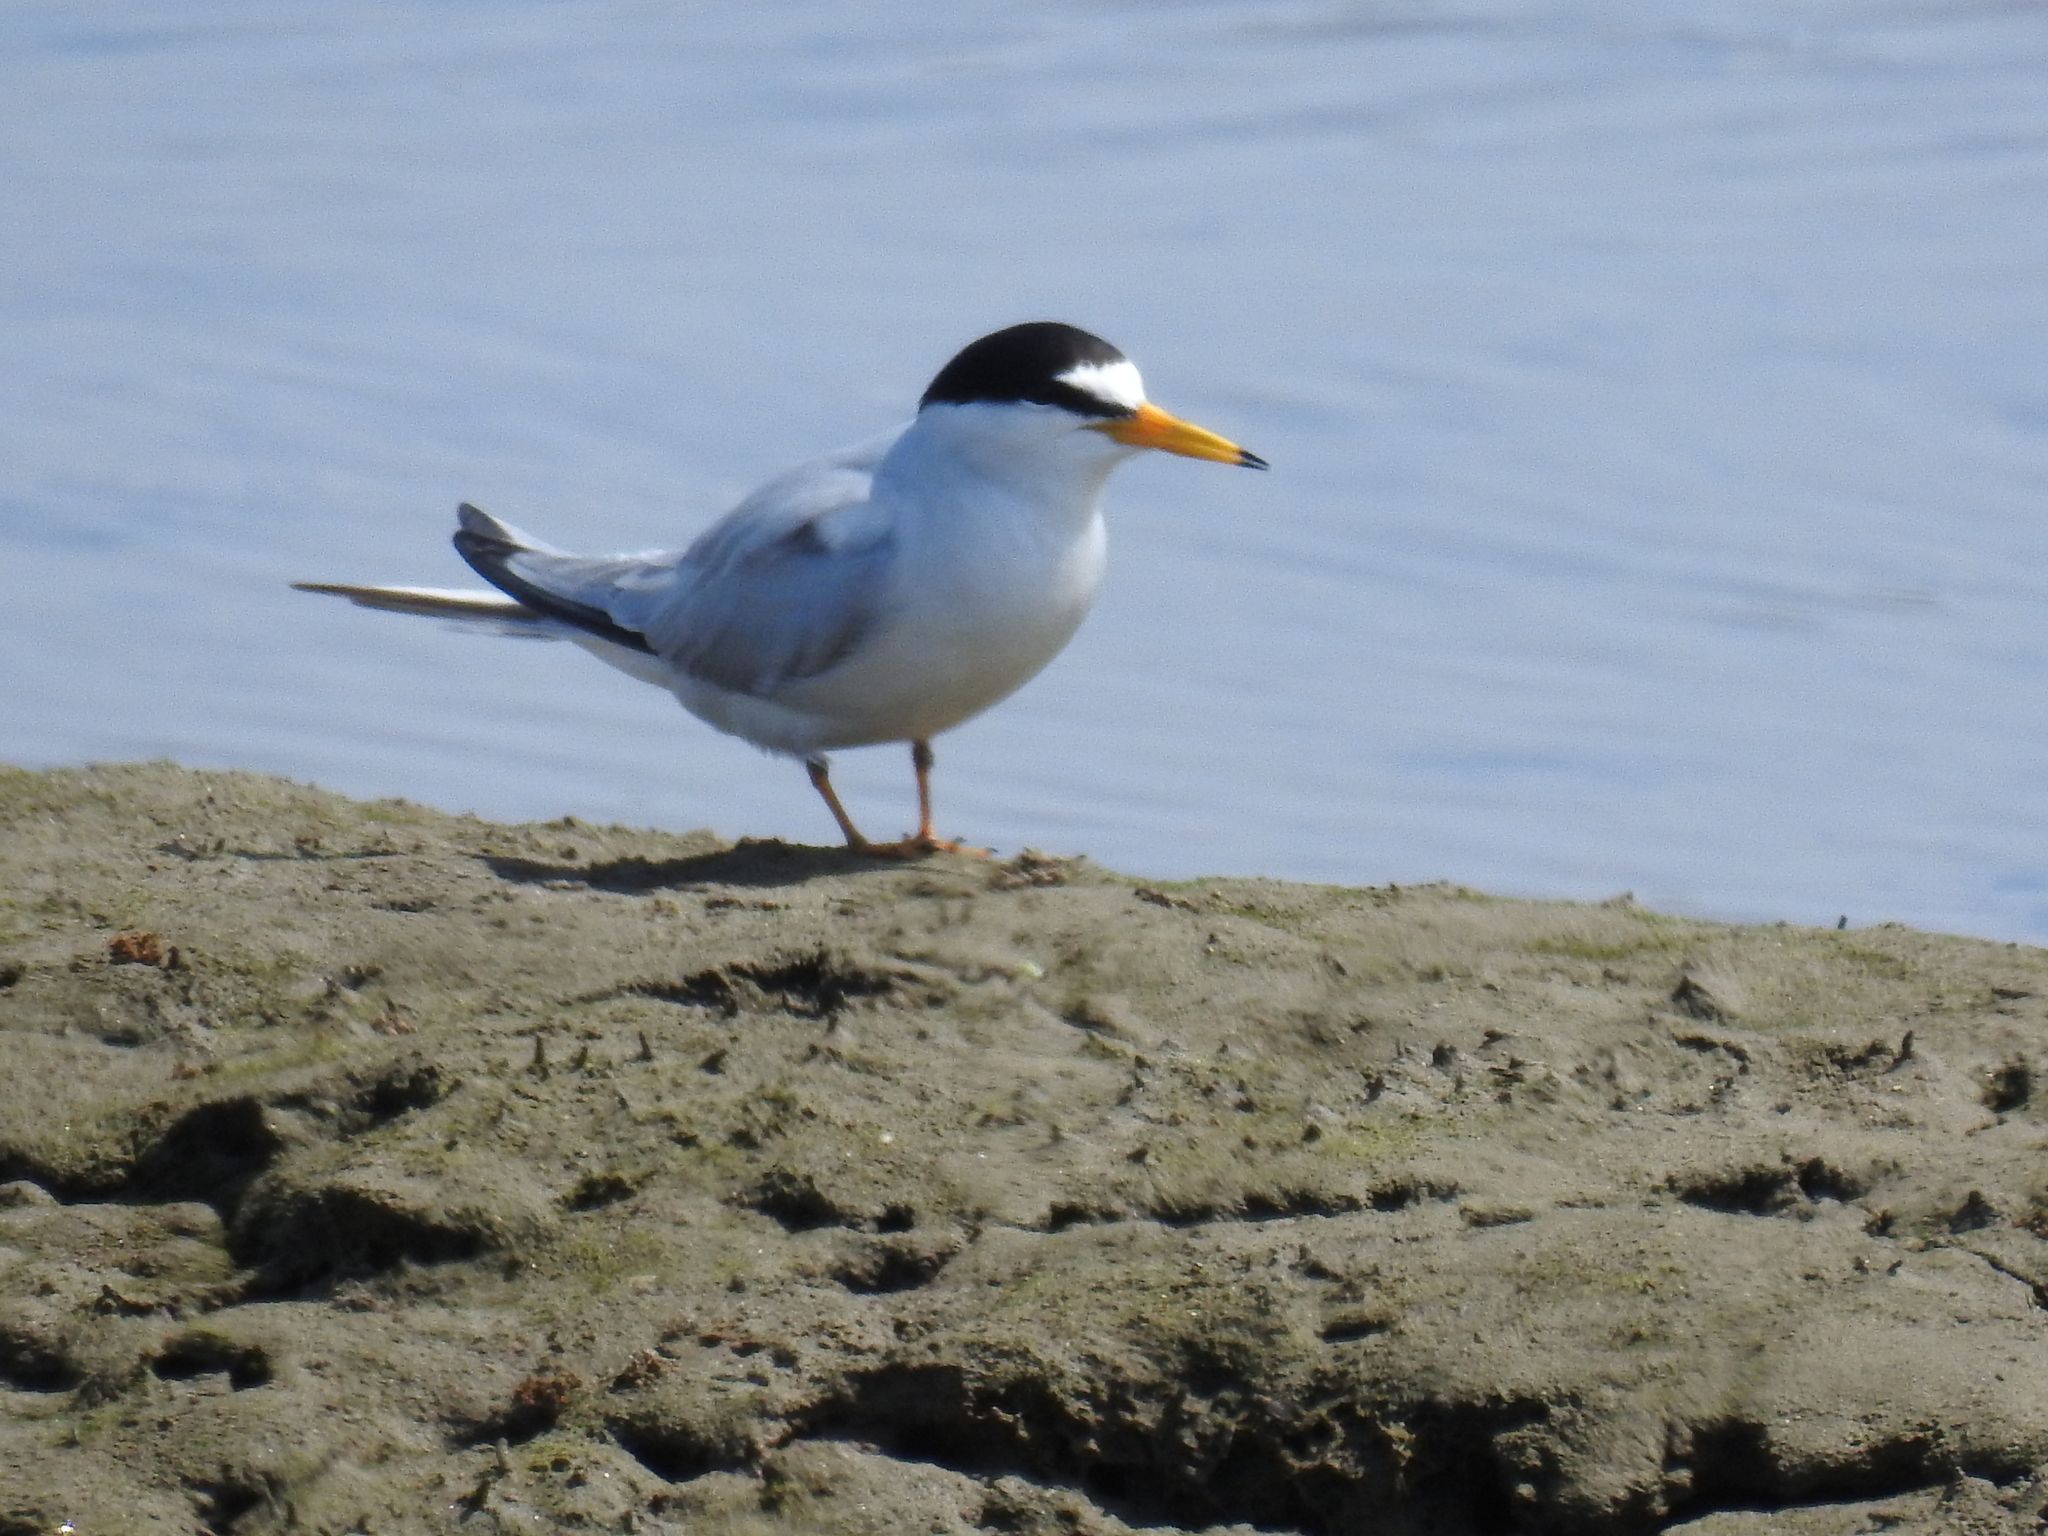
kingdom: Animalia
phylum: Chordata
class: Aves
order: Charadriiformes
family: Laridae
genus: Sternula
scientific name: Sternula antillarum
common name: Least tern
